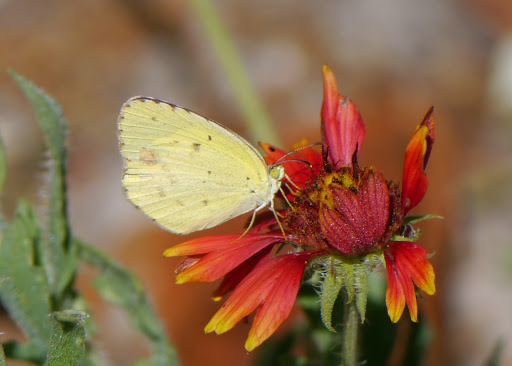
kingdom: Animalia
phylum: Arthropoda
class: Insecta
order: Lepidoptera
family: Pieridae
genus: Pyrisitia
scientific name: Pyrisitia lisa
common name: Little yellow
